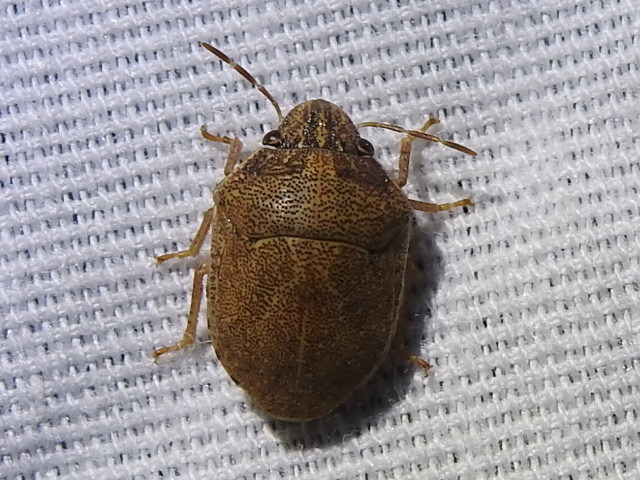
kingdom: Animalia
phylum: Arthropoda
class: Insecta
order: Hemiptera
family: Scutelleridae
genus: Sphyrocoris
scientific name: Sphyrocoris obliquus
